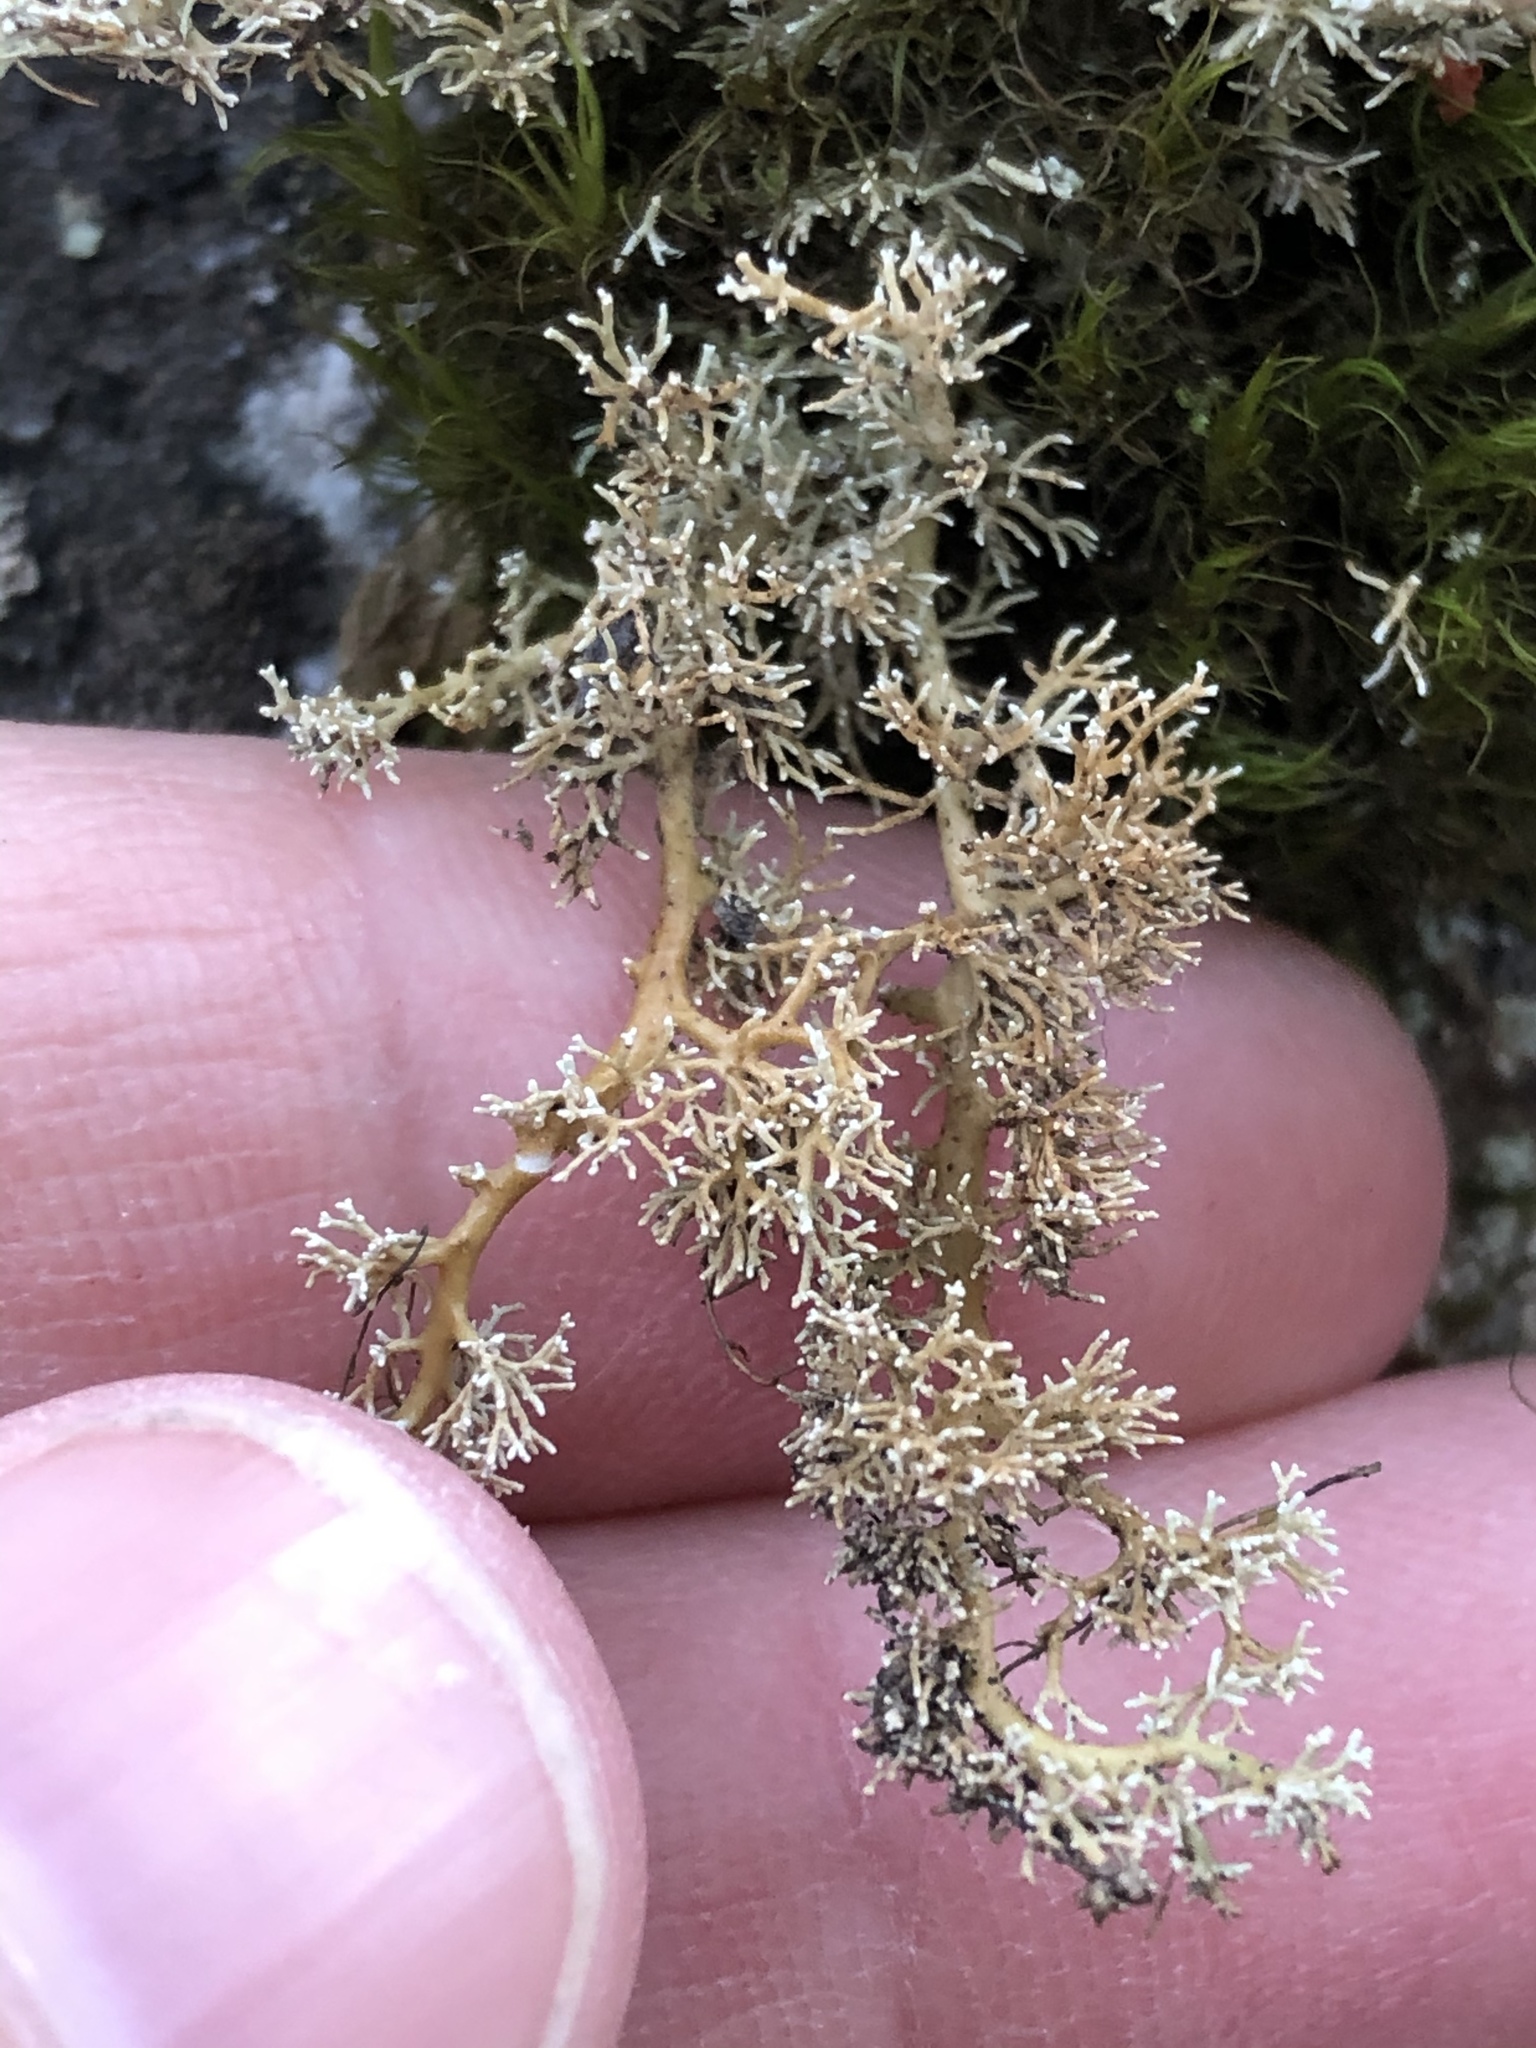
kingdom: Fungi
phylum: Ascomycota
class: Lecanoromycetes
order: Lecanorales
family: Sphaerophoraceae
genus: Sphaerophorus
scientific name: Sphaerophorus globosus
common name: Globe ball lichen
